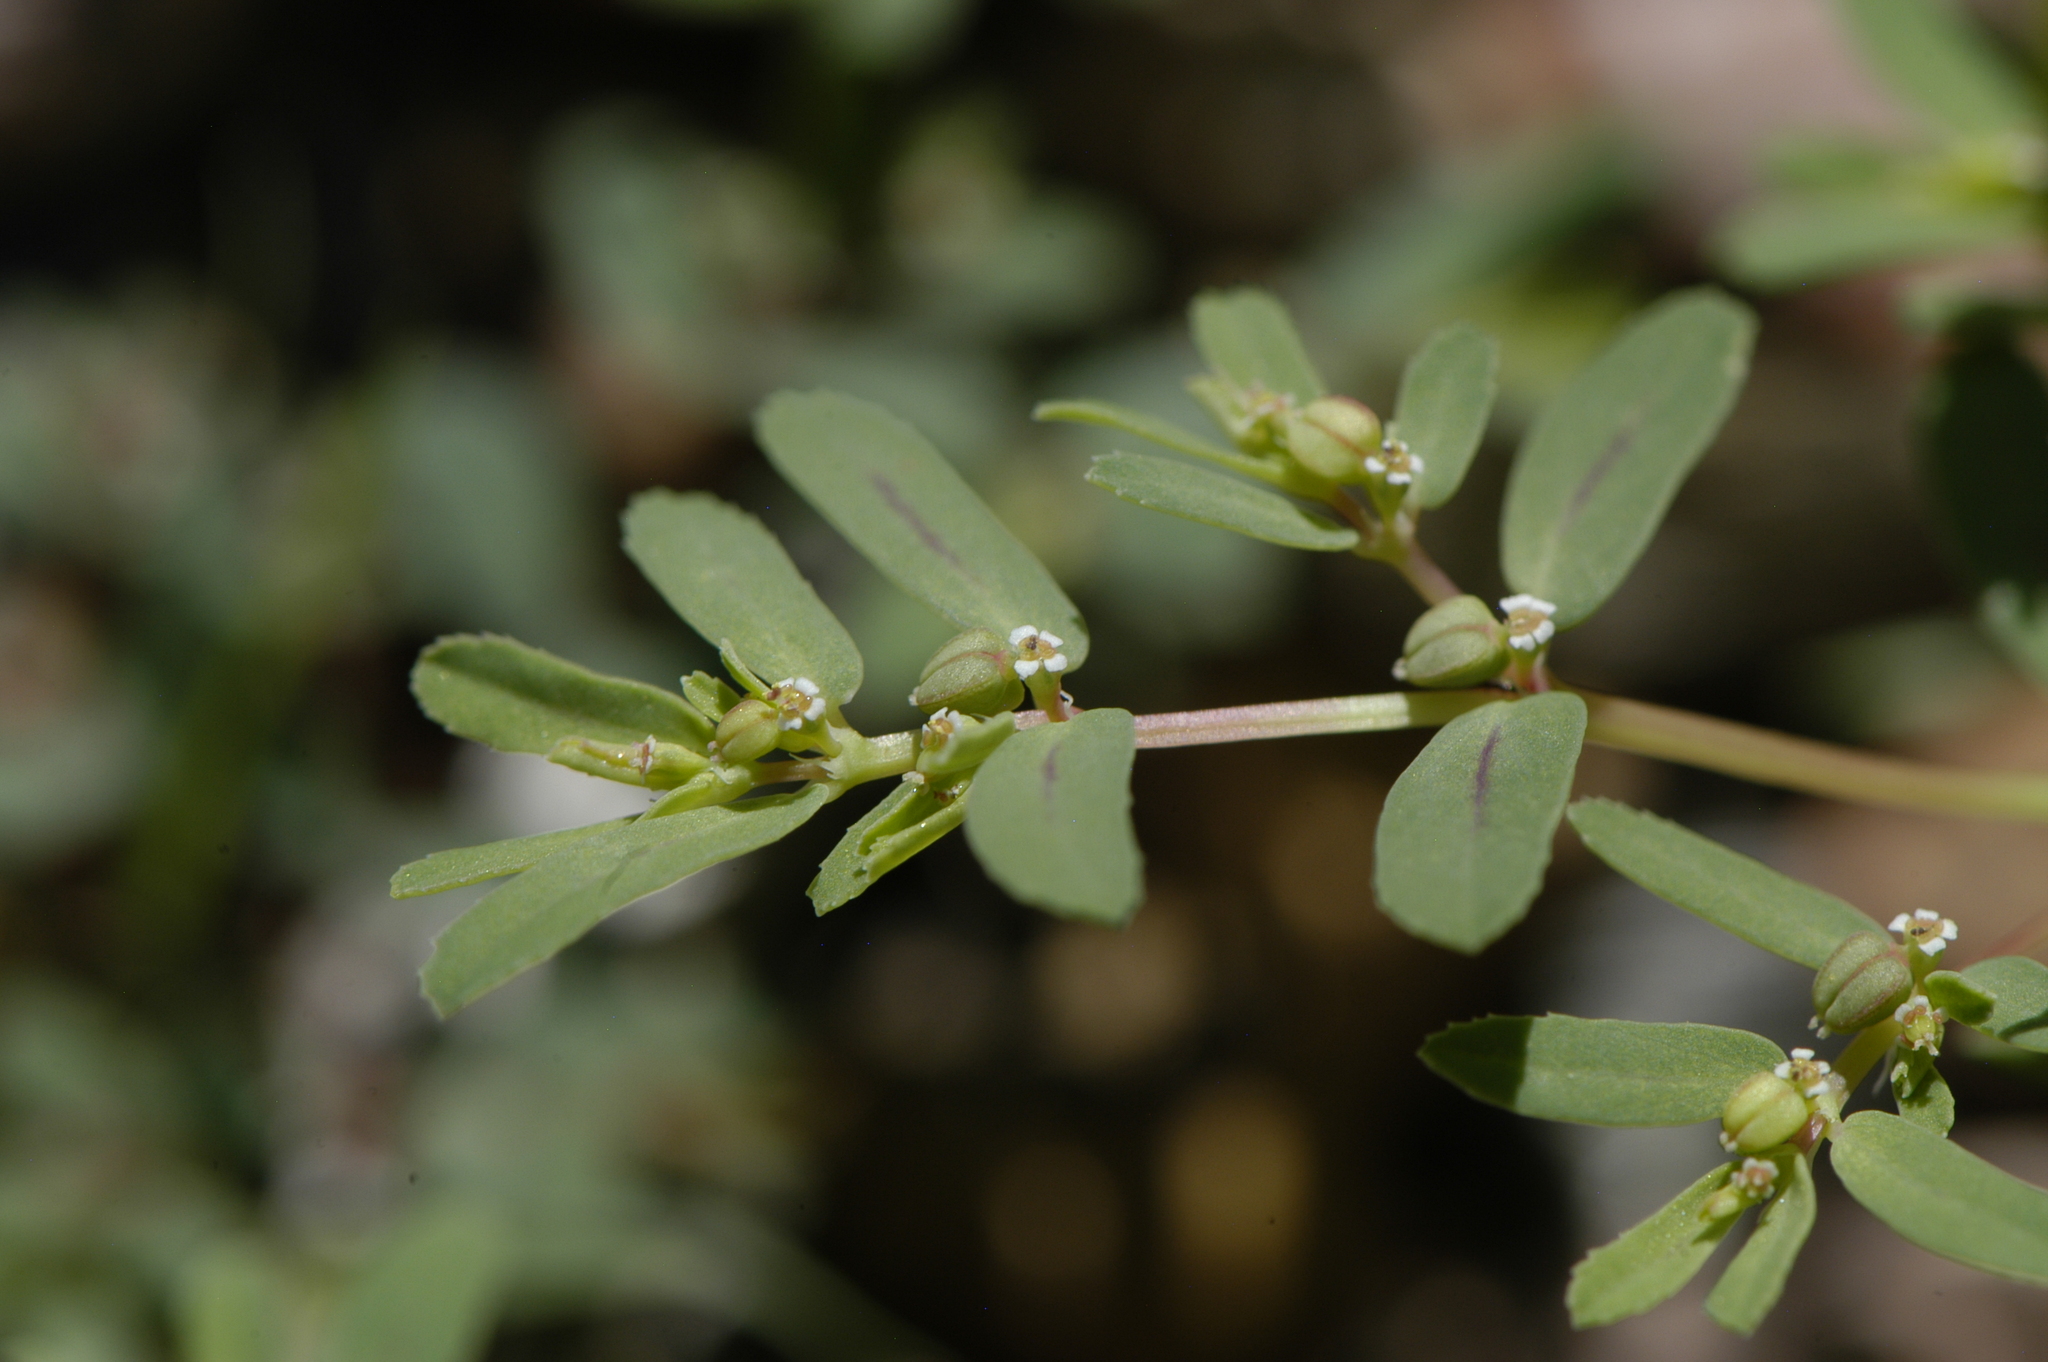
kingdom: Plantae
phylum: Tracheophyta
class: Magnoliopsida
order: Malpighiales
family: Euphorbiaceae
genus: Euphorbia
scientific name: Euphorbia serpillifolia
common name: Thyme-leaf spurge
